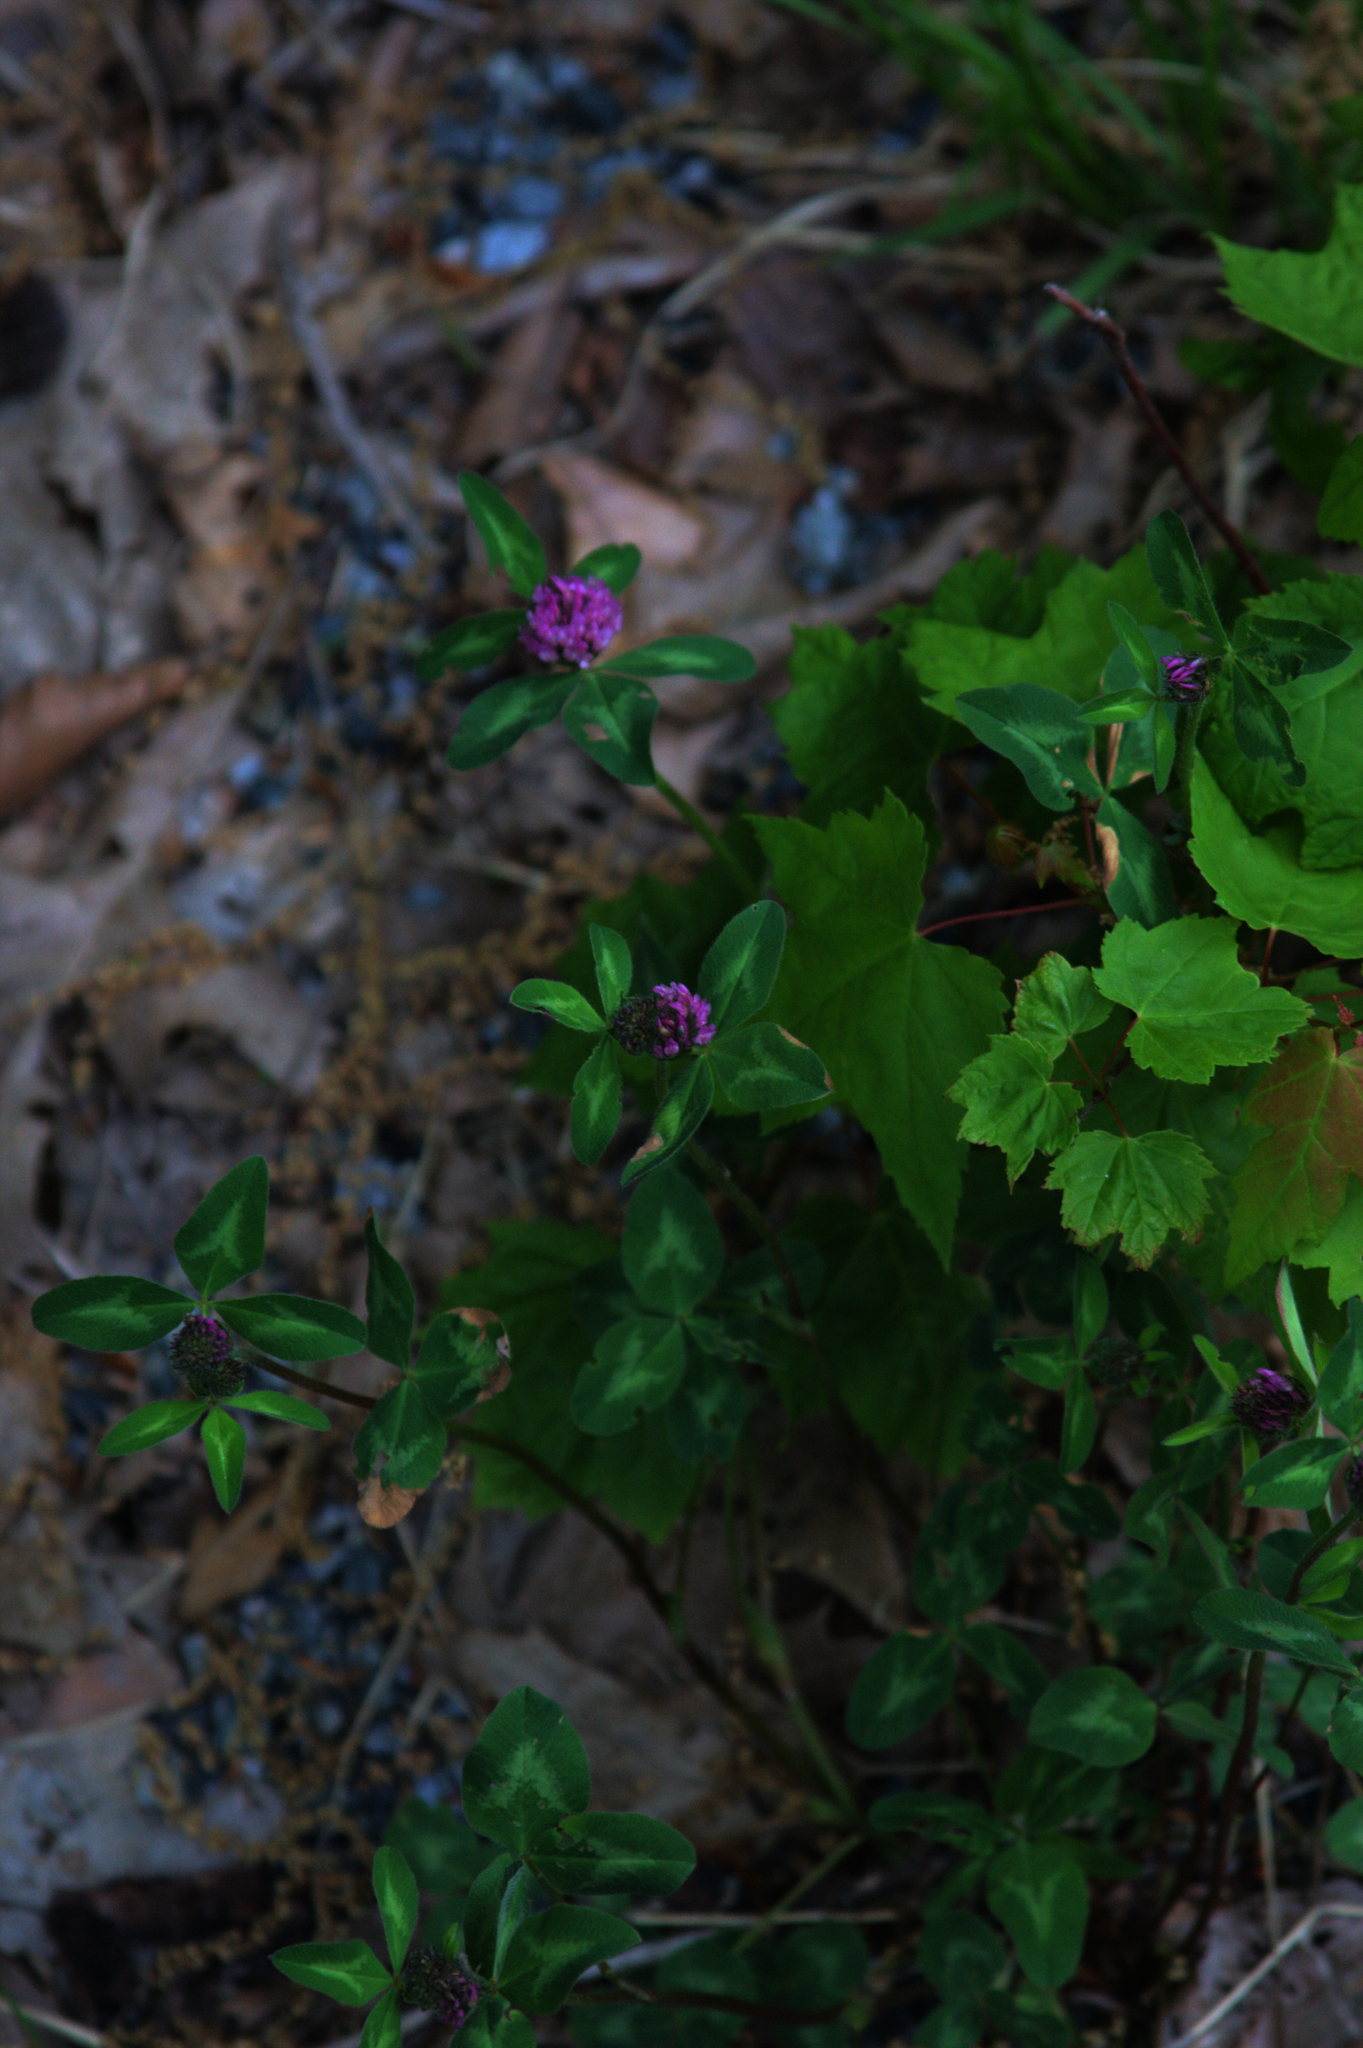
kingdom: Plantae
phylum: Tracheophyta
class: Magnoliopsida
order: Fabales
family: Fabaceae
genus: Trifolium
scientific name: Trifolium pratense
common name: Red clover
